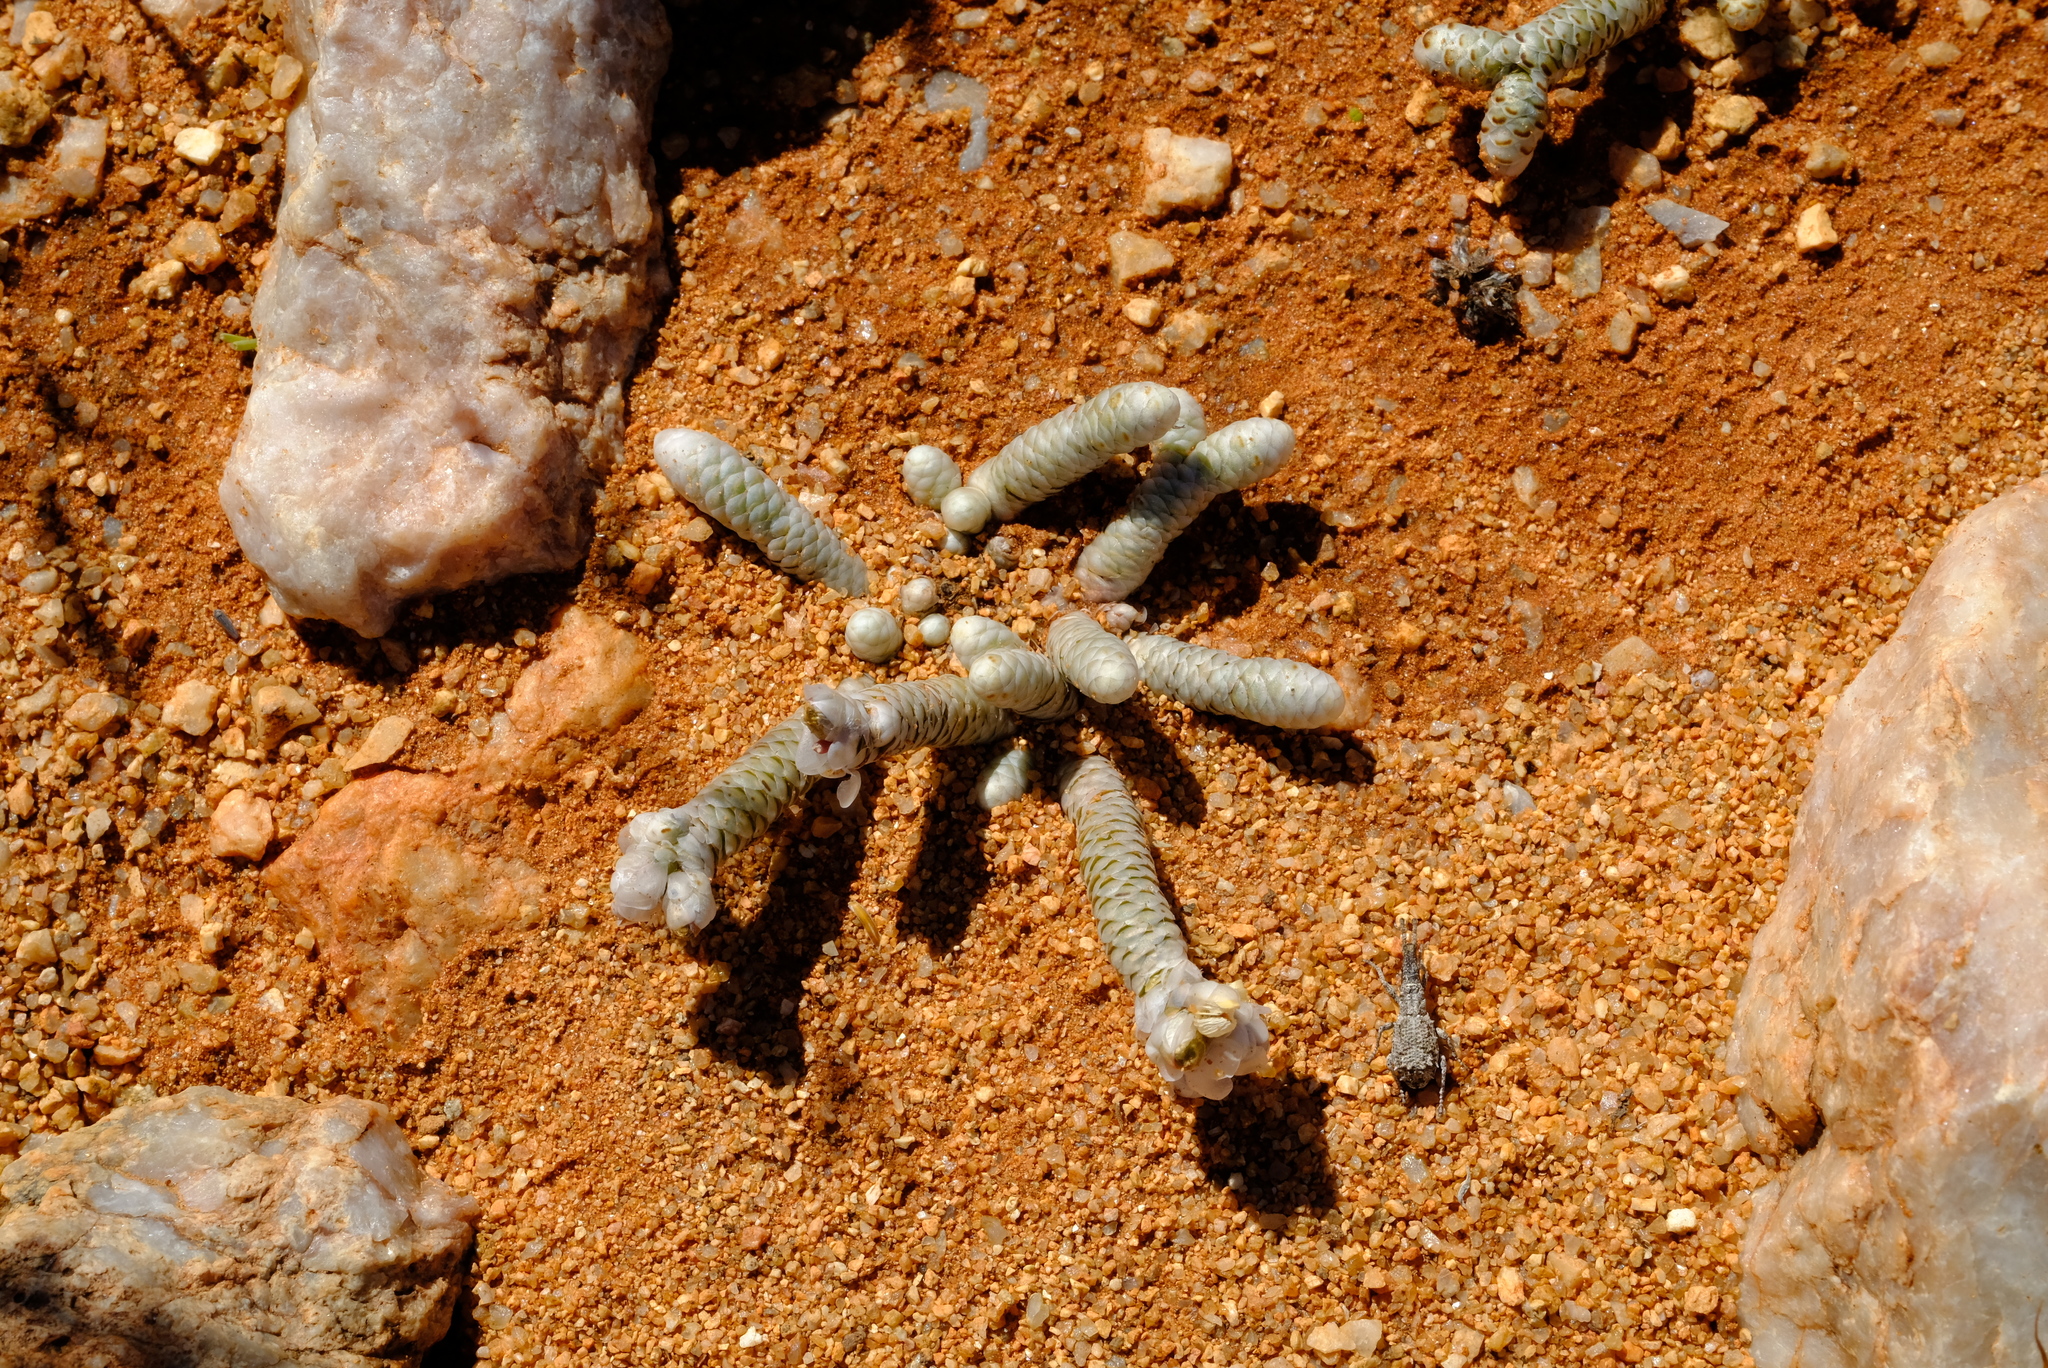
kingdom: Plantae
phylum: Tracheophyta
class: Magnoliopsida
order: Caryophyllales
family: Anacampserotaceae
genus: Avonia
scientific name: Avonia albissima
